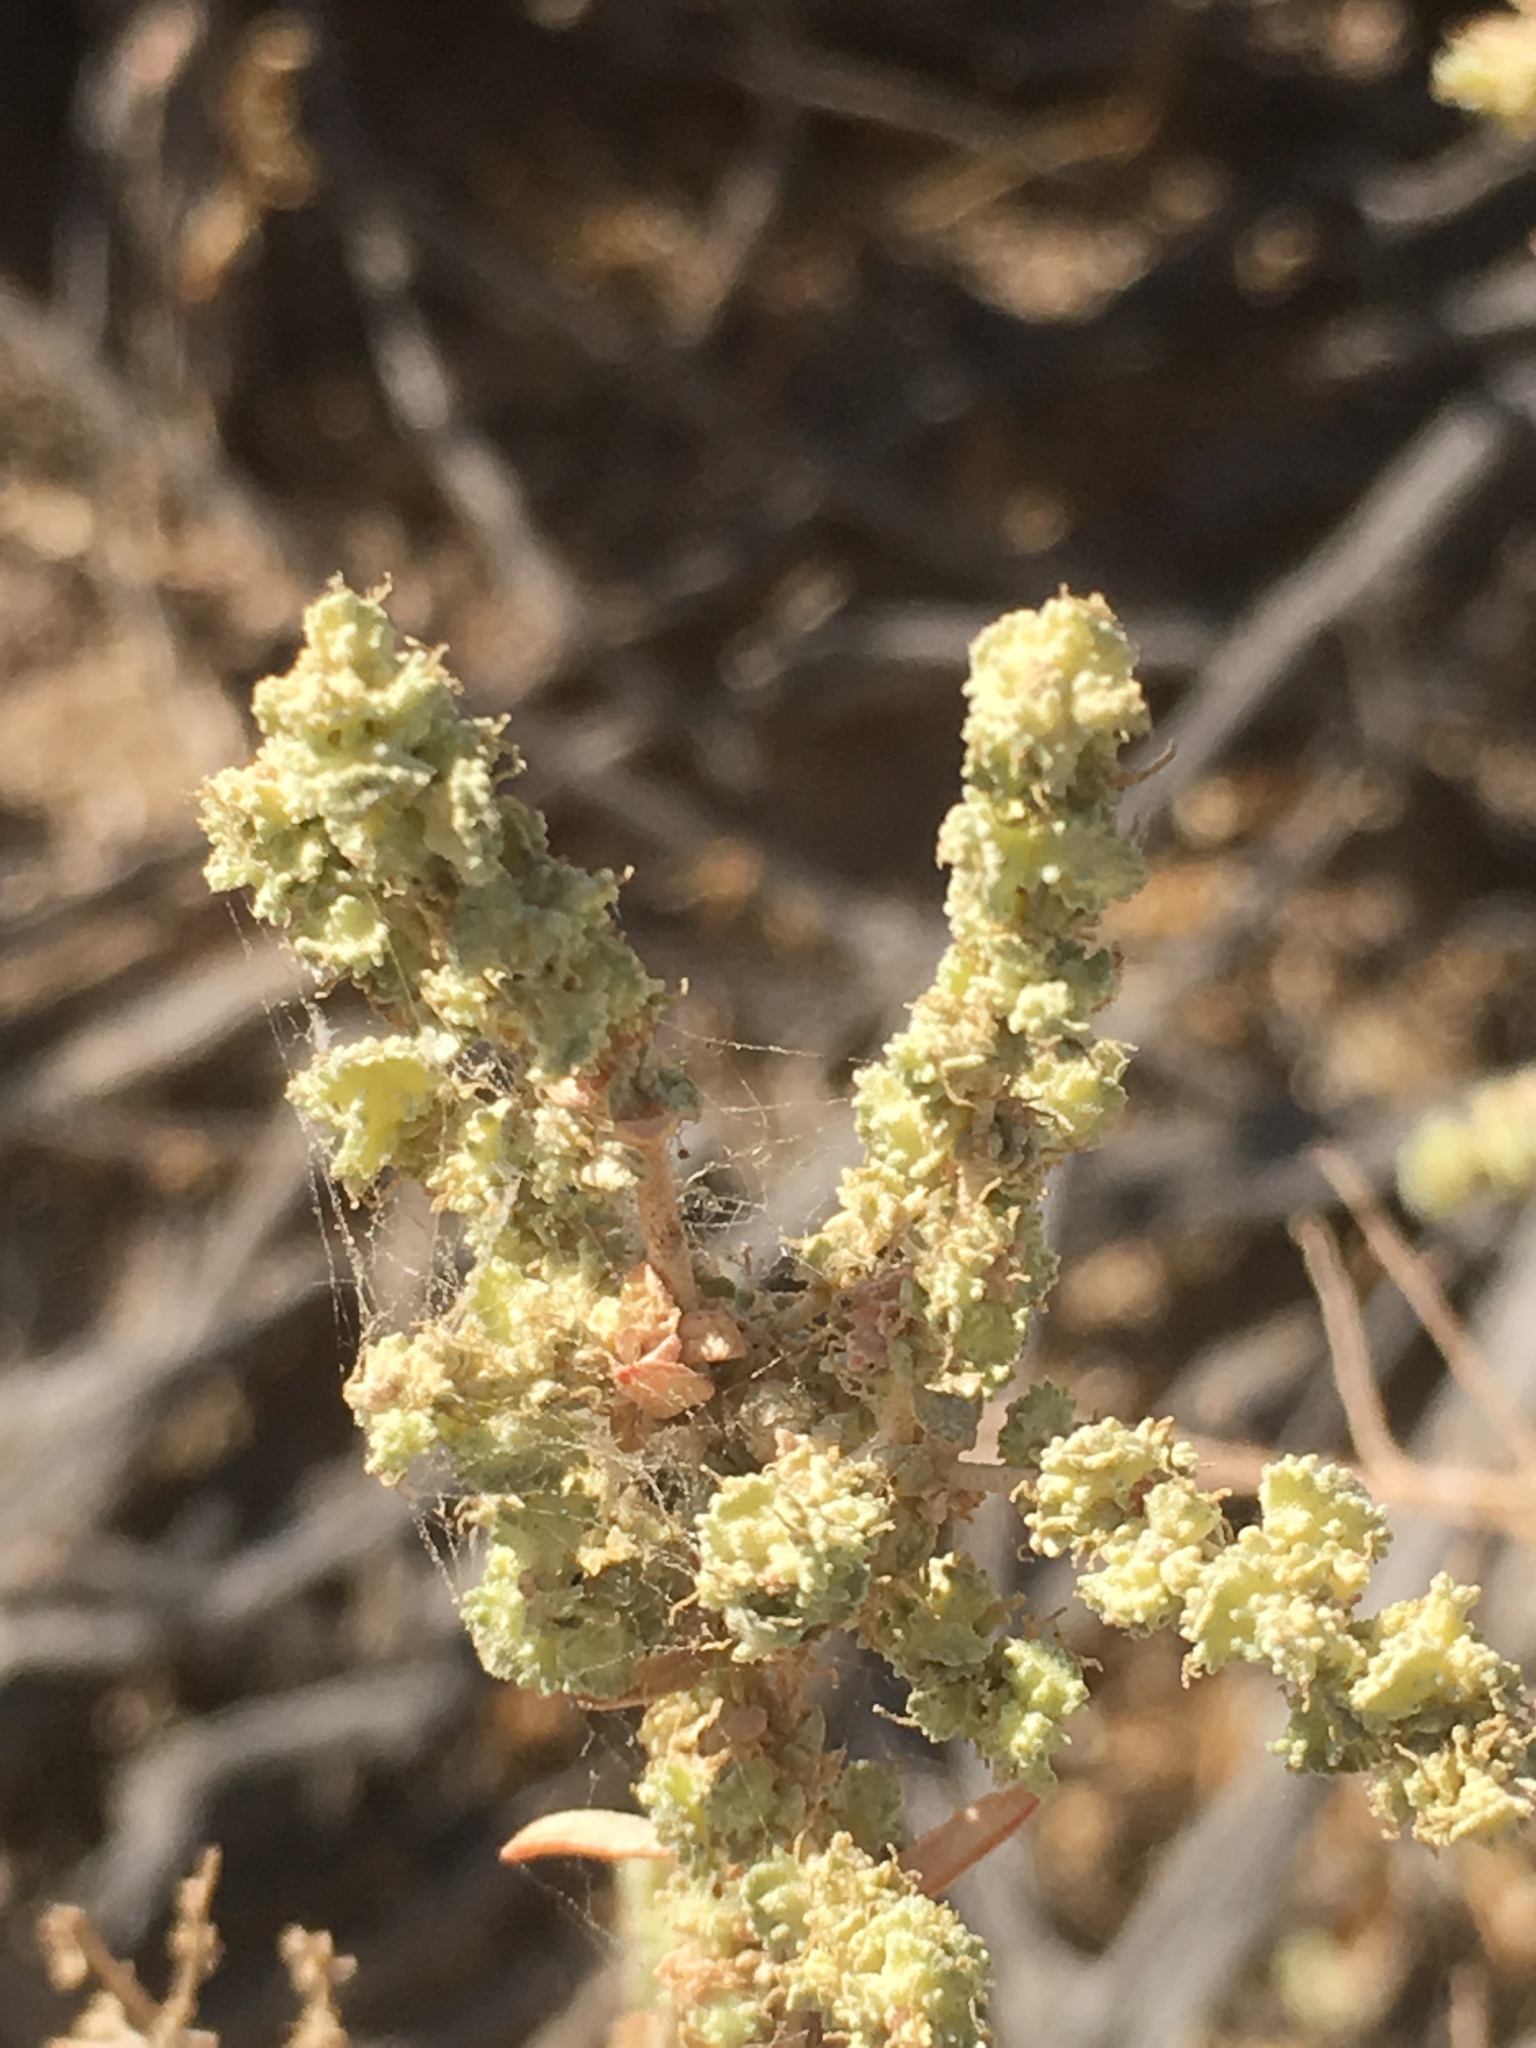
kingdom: Plantae
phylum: Tracheophyta
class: Magnoliopsida
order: Caryophyllales
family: Amaranthaceae
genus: Atriplex
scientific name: Atriplex polycarpa
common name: Desert saltbush
